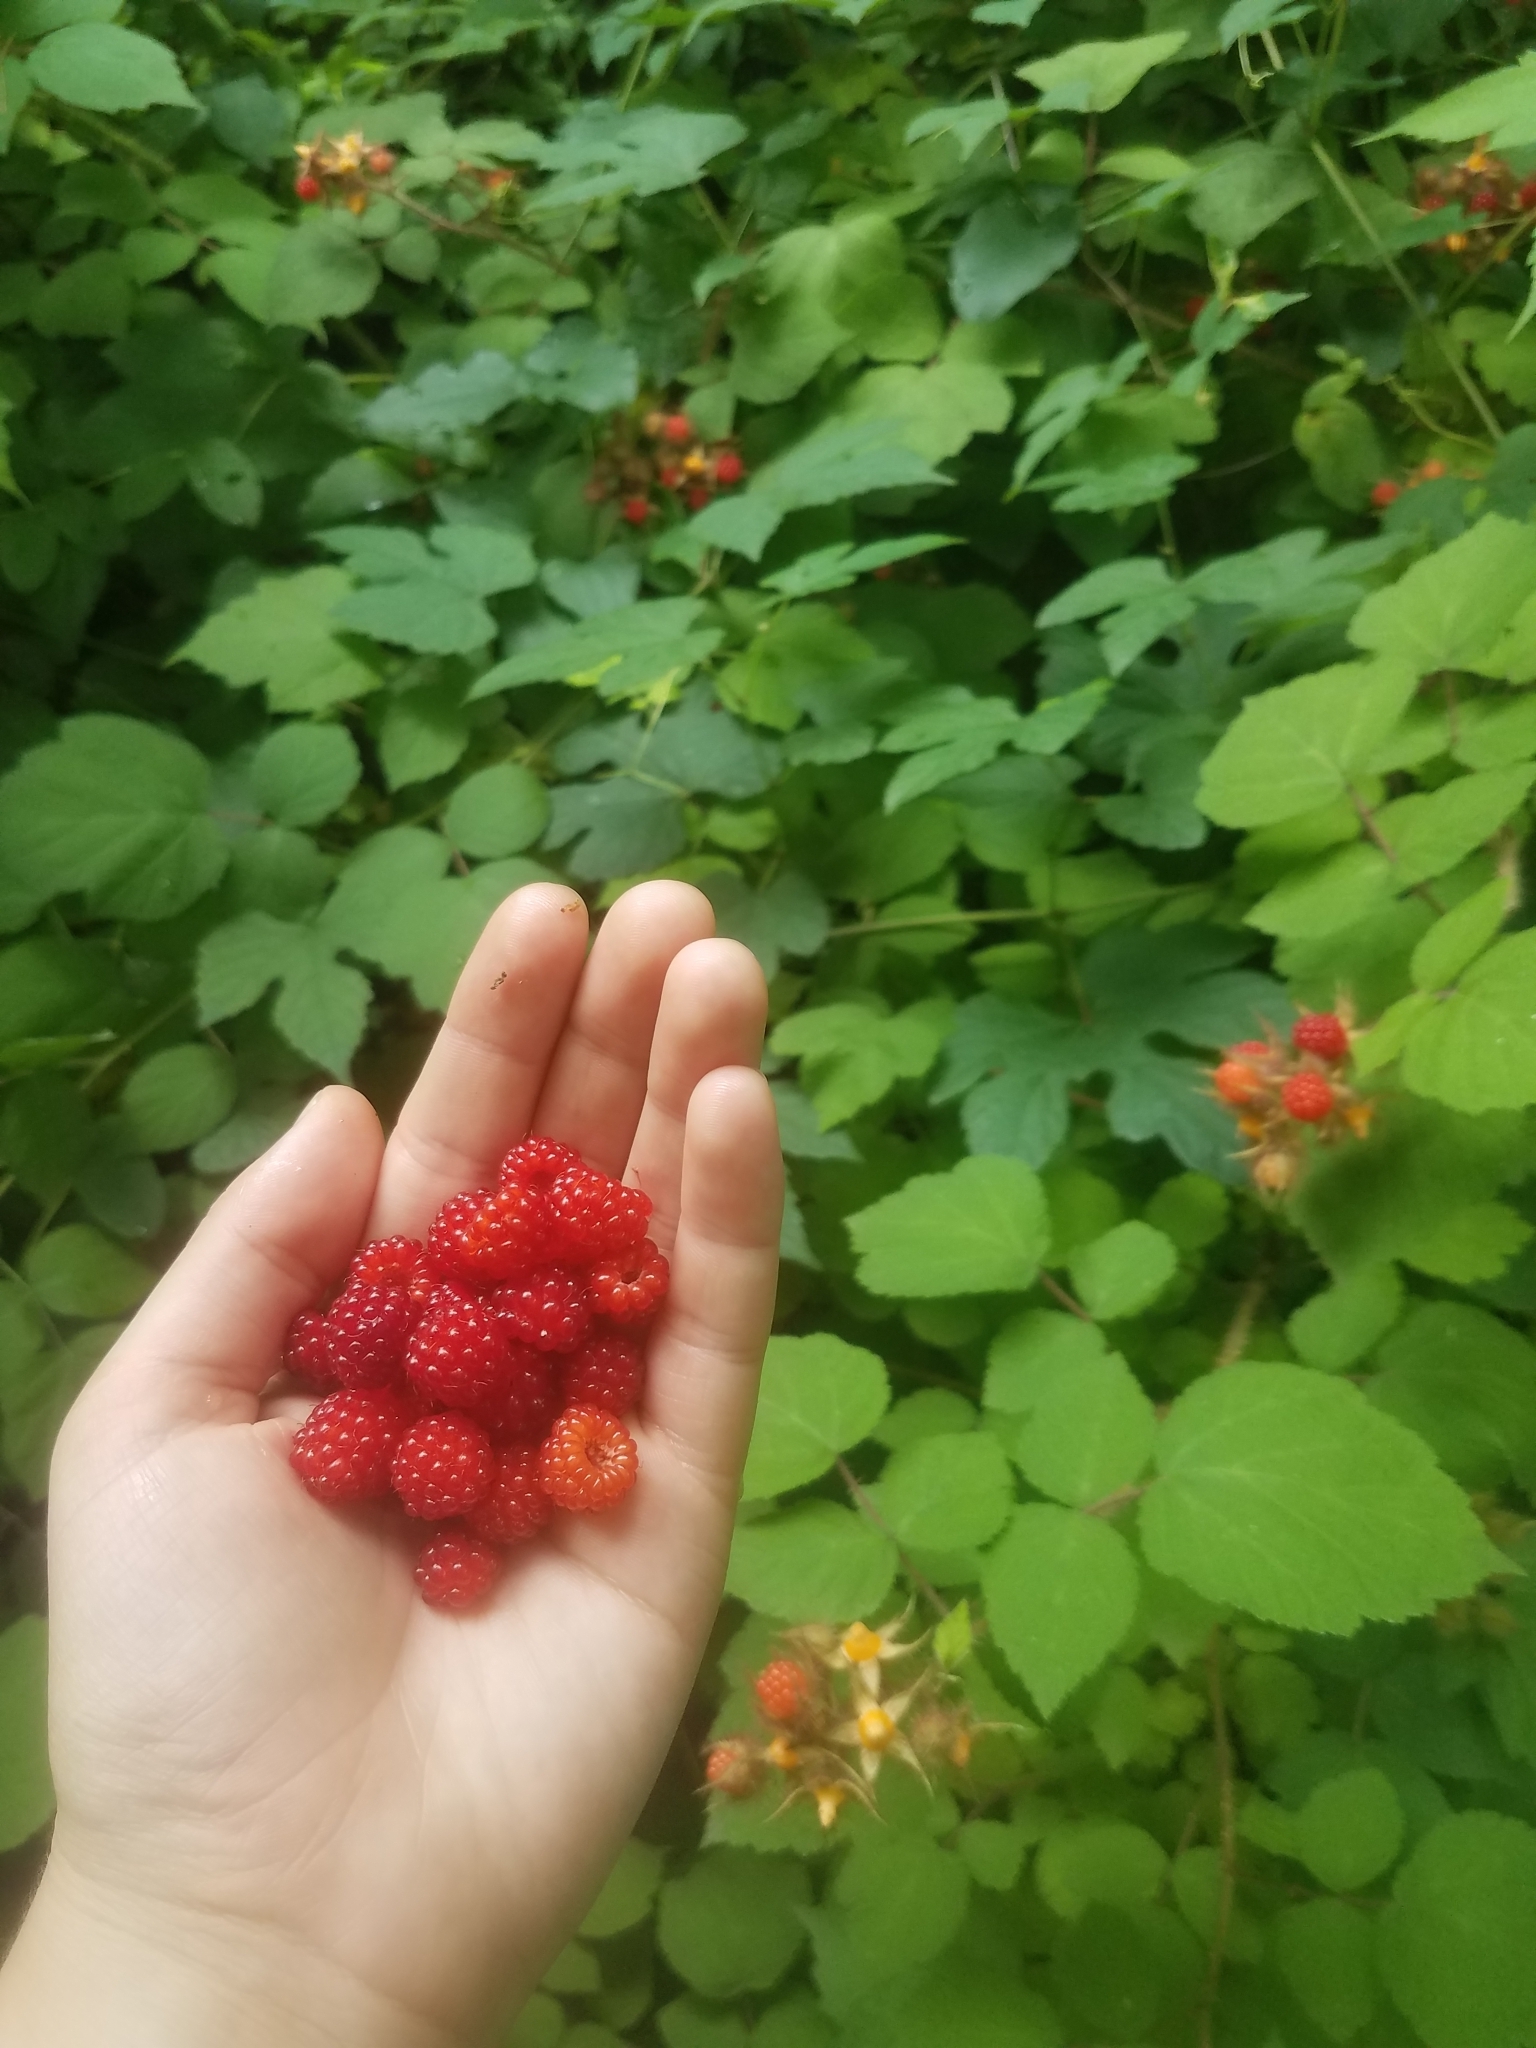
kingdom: Plantae
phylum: Tracheophyta
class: Magnoliopsida
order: Rosales
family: Rosaceae
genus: Rubus
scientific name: Rubus phoenicolasius
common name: Japanese wineberry
